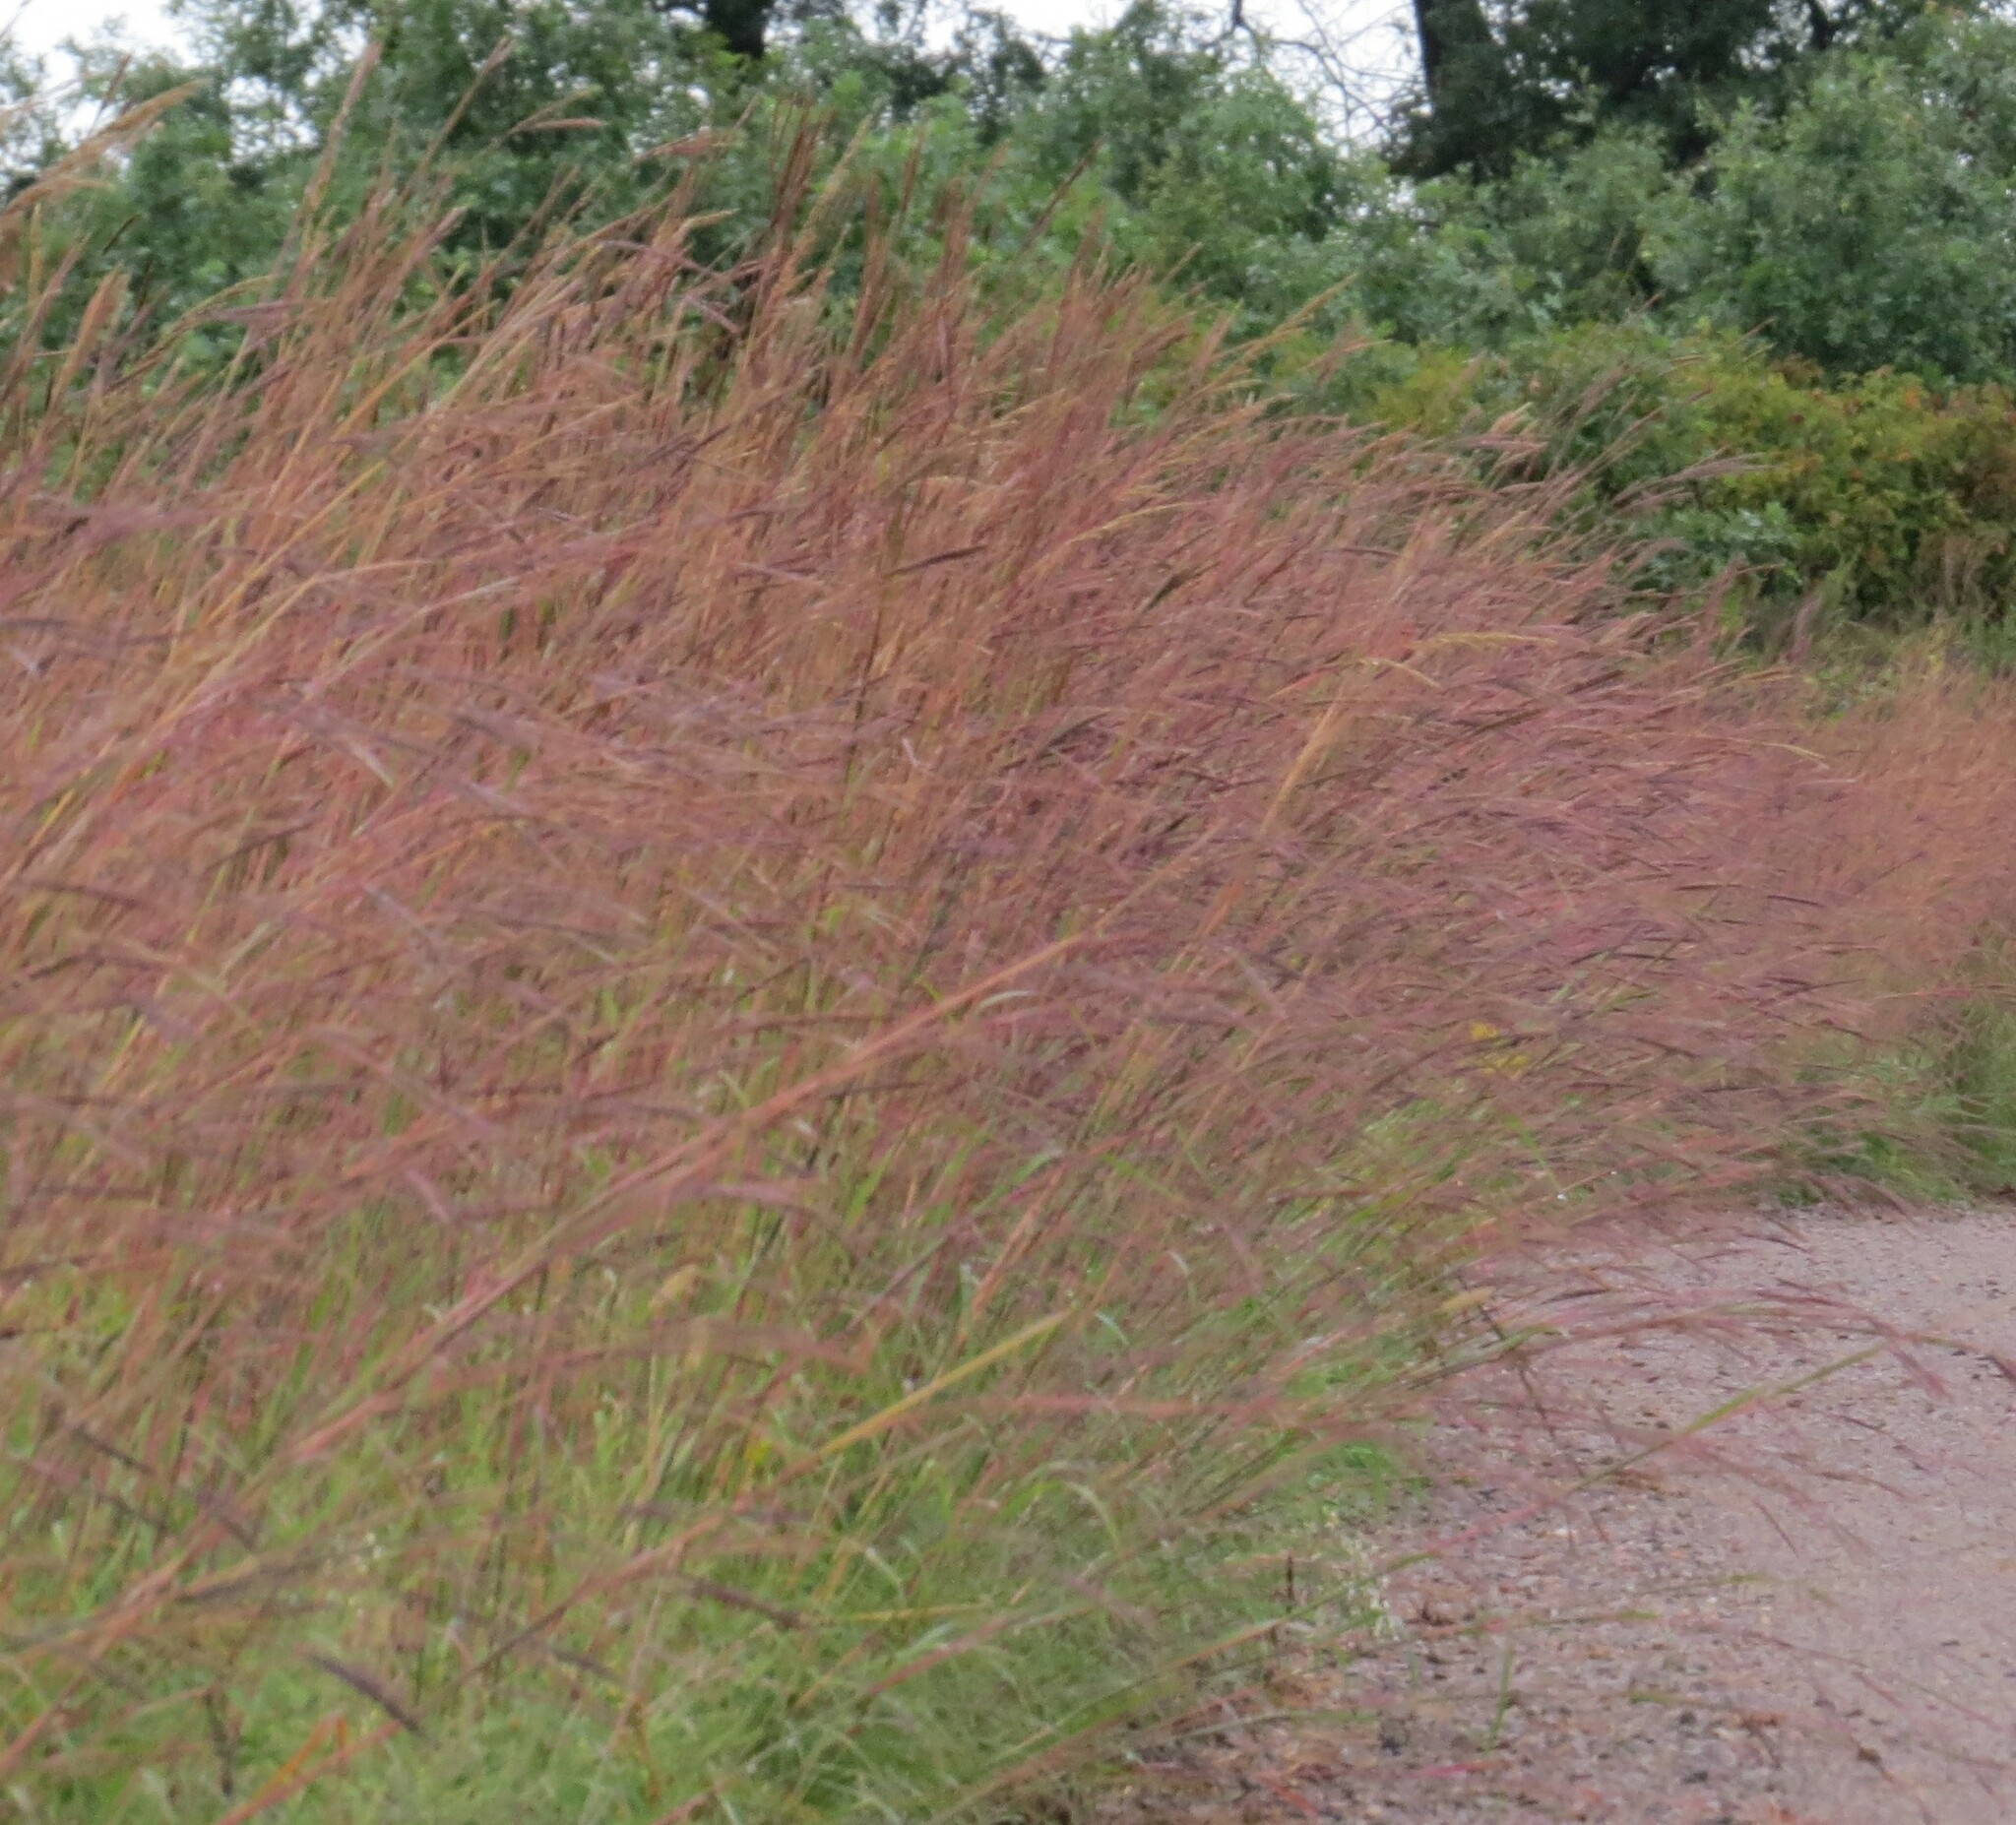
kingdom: Plantae
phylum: Tracheophyta
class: Liliopsida
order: Poales
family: Poaceae
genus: Andropogon
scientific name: Andropogon gerardi
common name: Big bluestem
